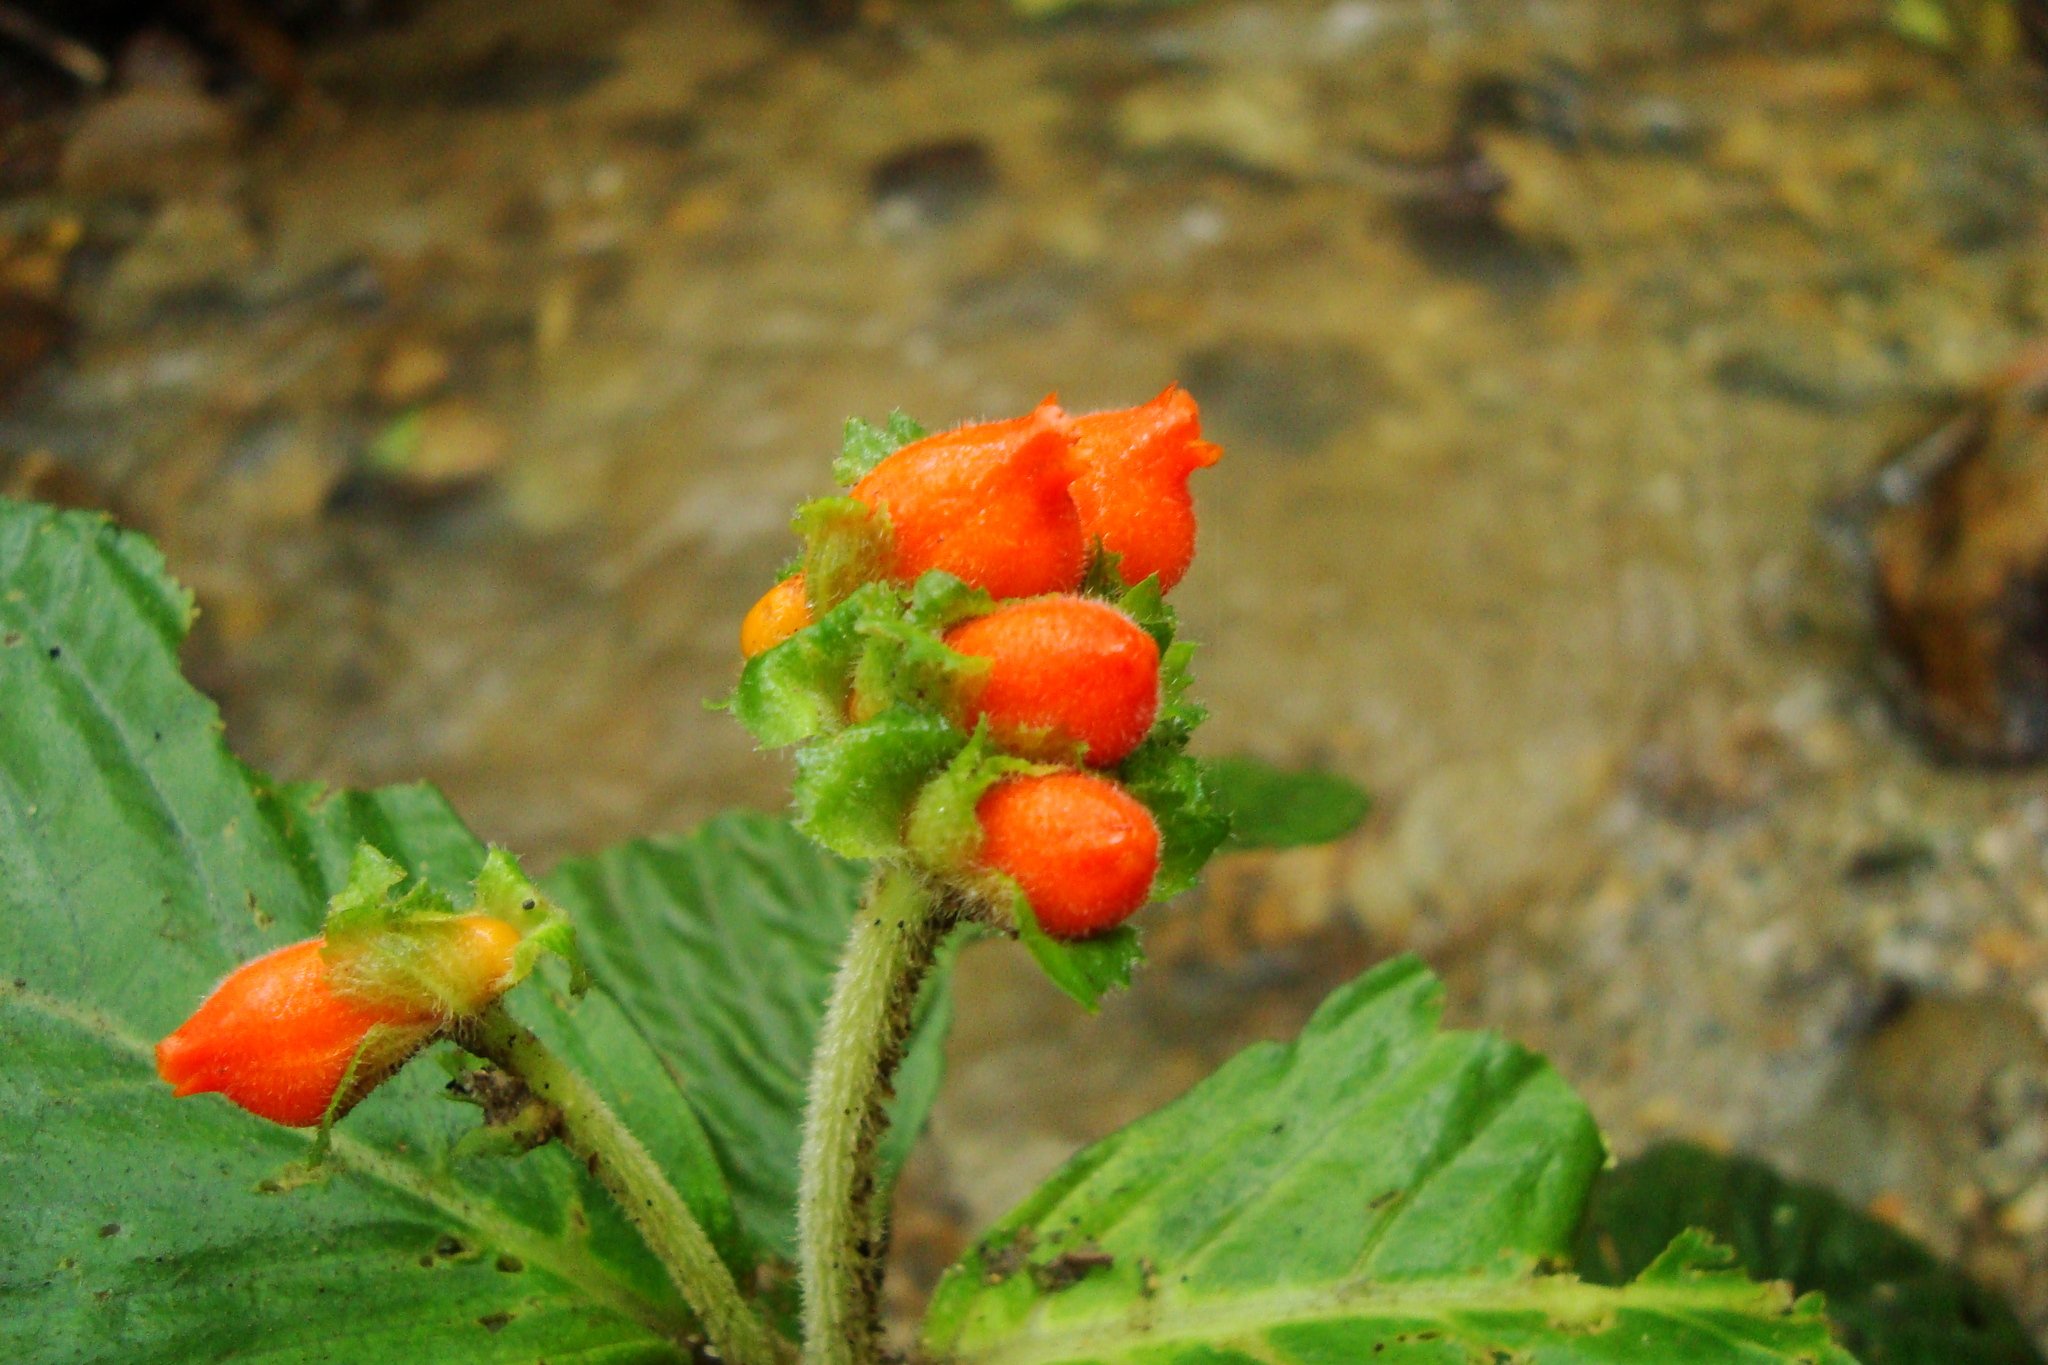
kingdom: Plantae
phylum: Tracheophyta
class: Magnoliopsida
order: Lamiales
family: Gesneriaceae
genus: Gasteranthus
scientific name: Gasteranthus corallinus
